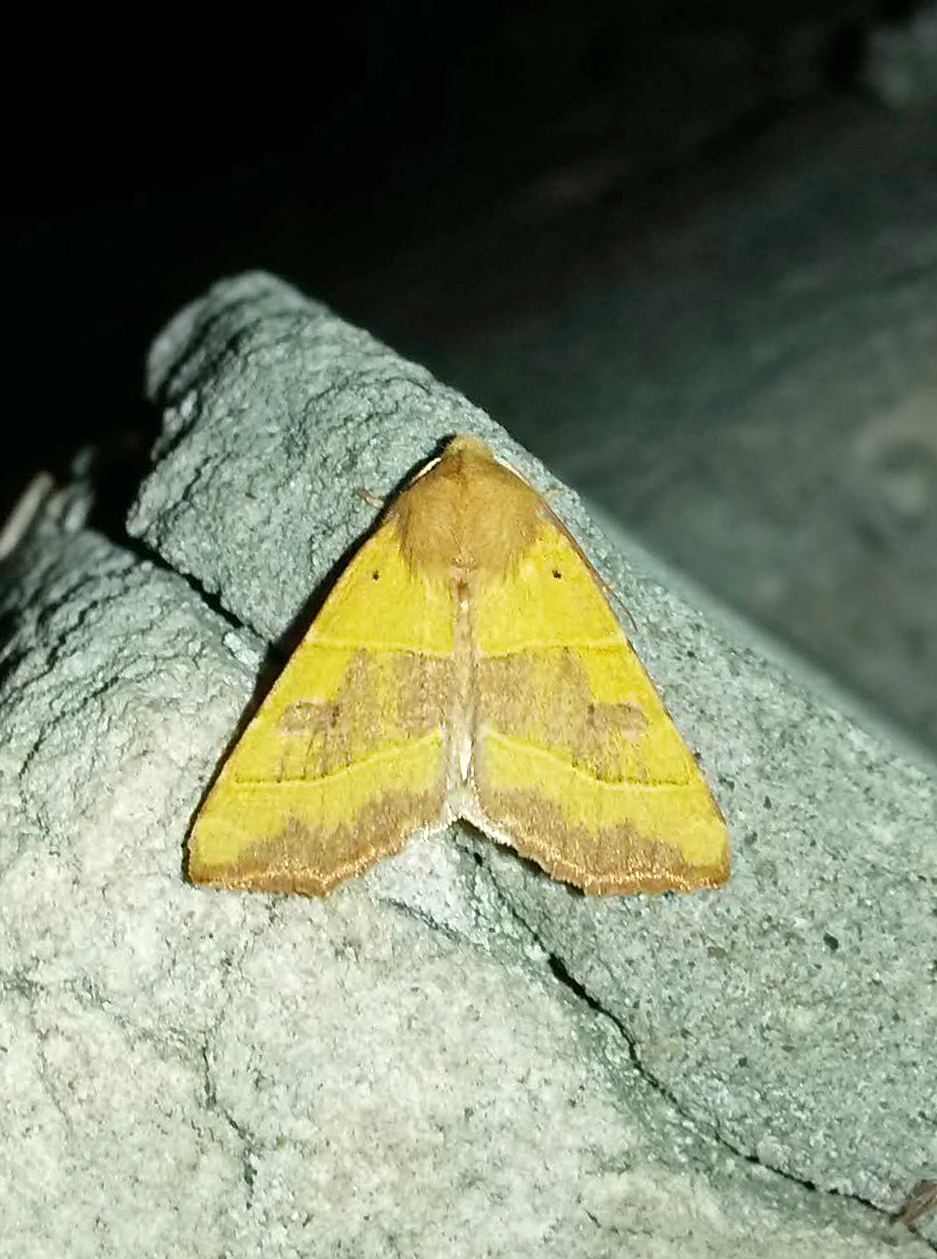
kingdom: Animalia
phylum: Arthropoda
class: Insecta
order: Lepidoptera
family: Noctuidae
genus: Atethmia
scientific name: Atethmia centrago
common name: Centre-barred sallow
